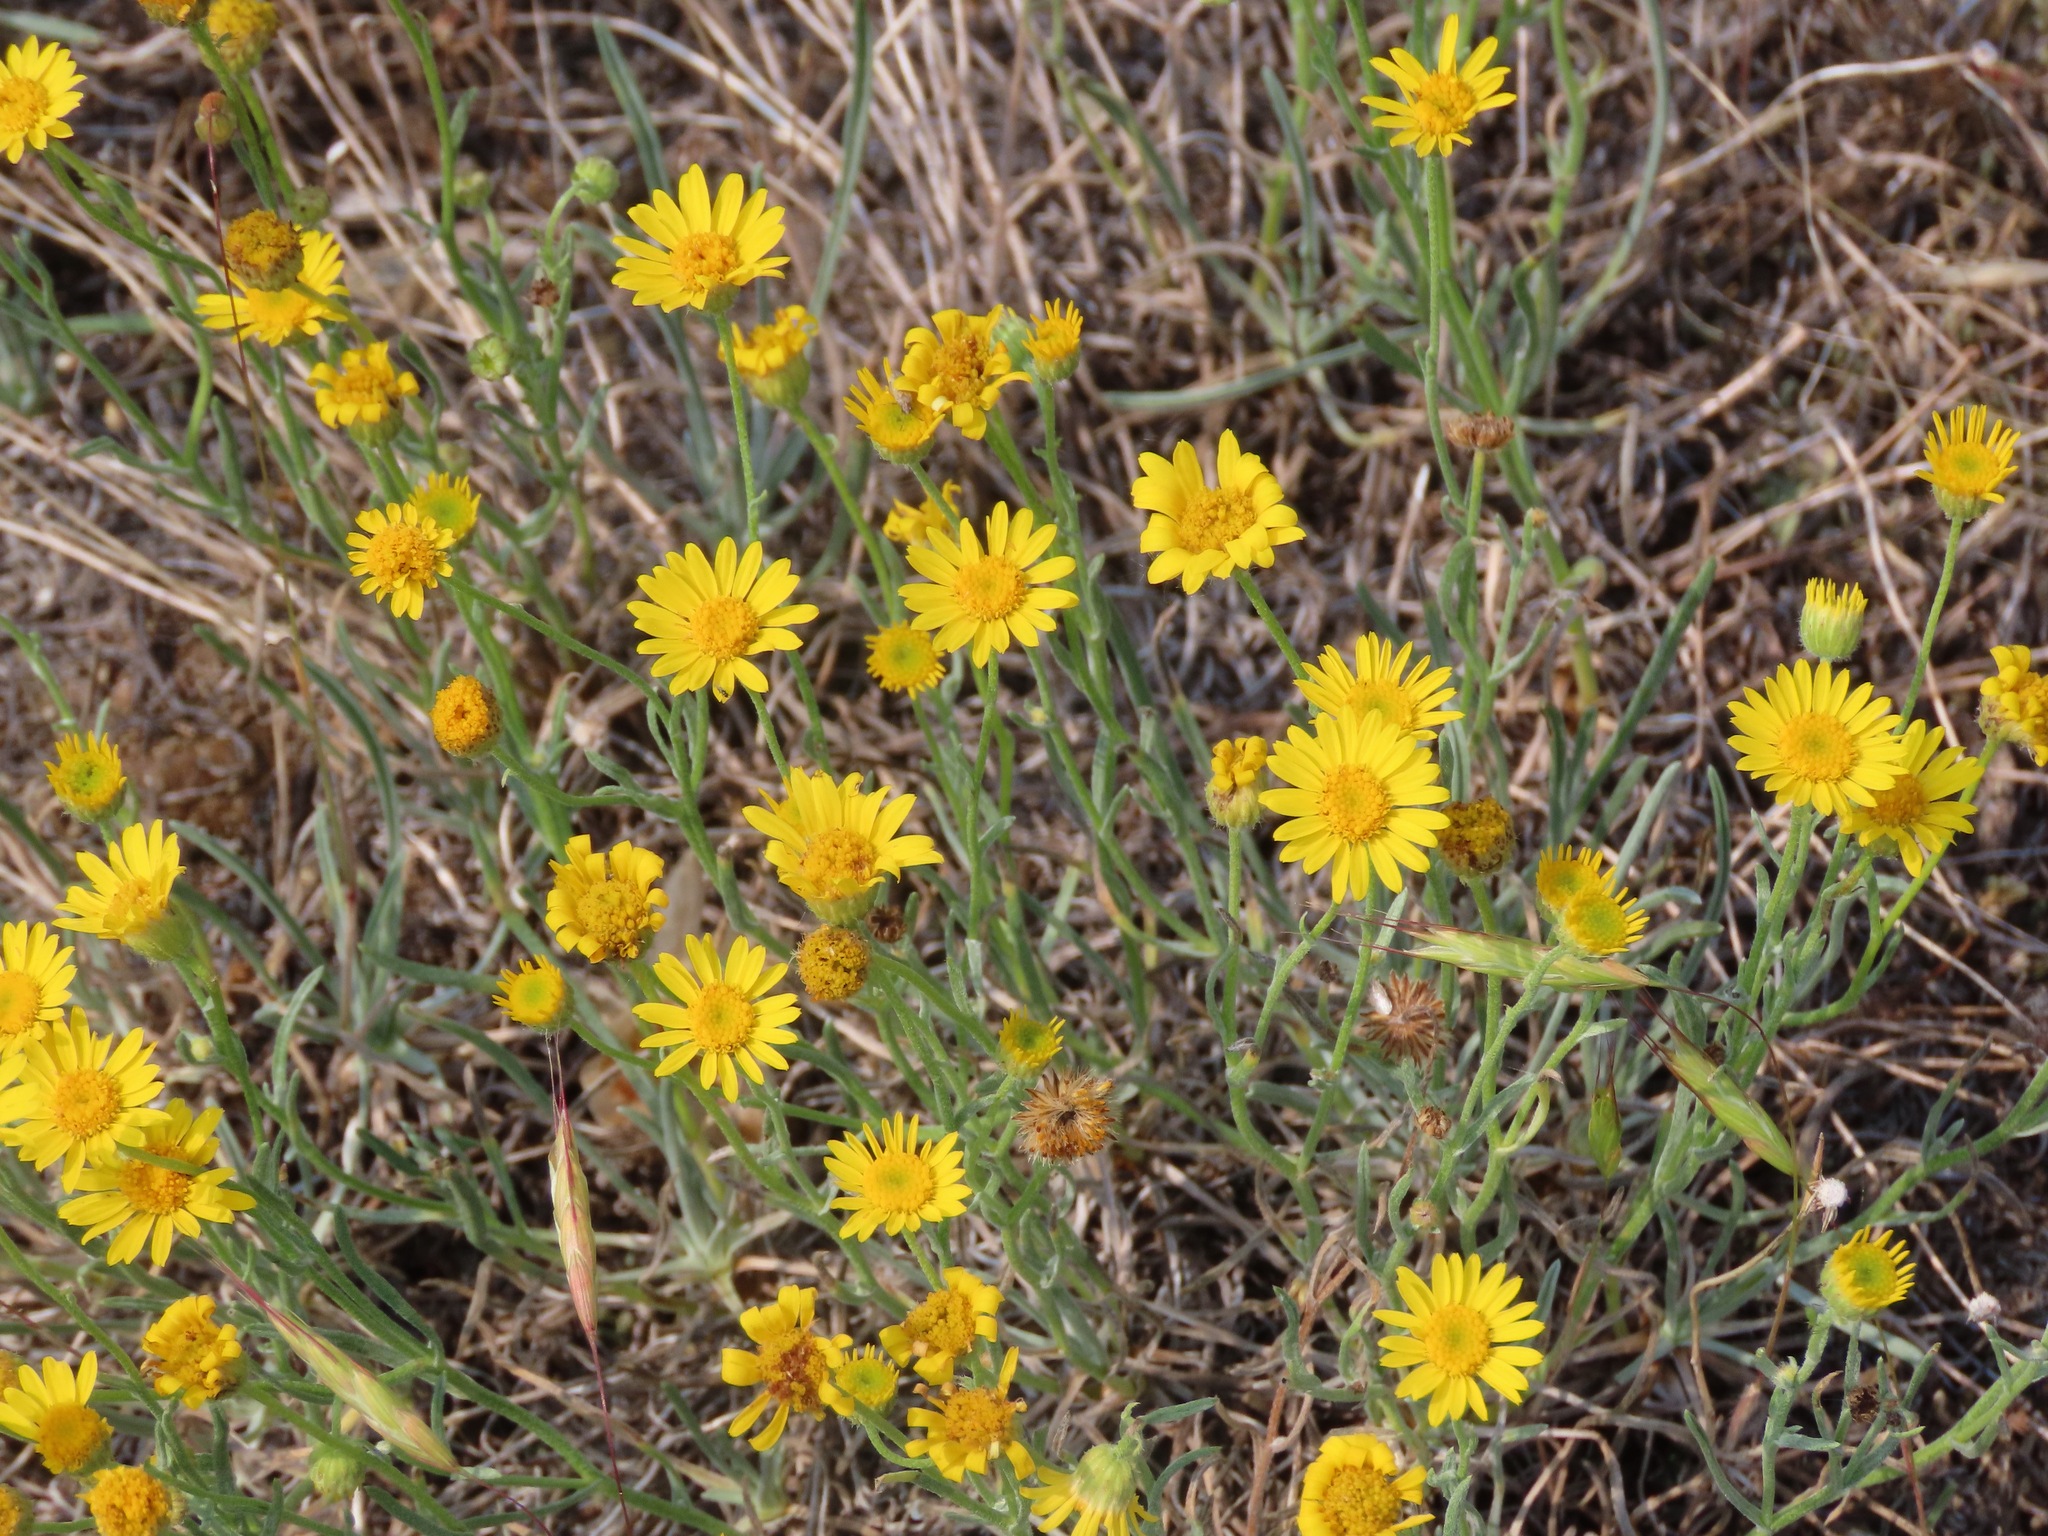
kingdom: Plantae
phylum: Tracheophyta
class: Magnoliopsida
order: Asterales
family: Asteraceae
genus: Erigeron
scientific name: Erigeron linearis
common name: Desert yellow fleabane
